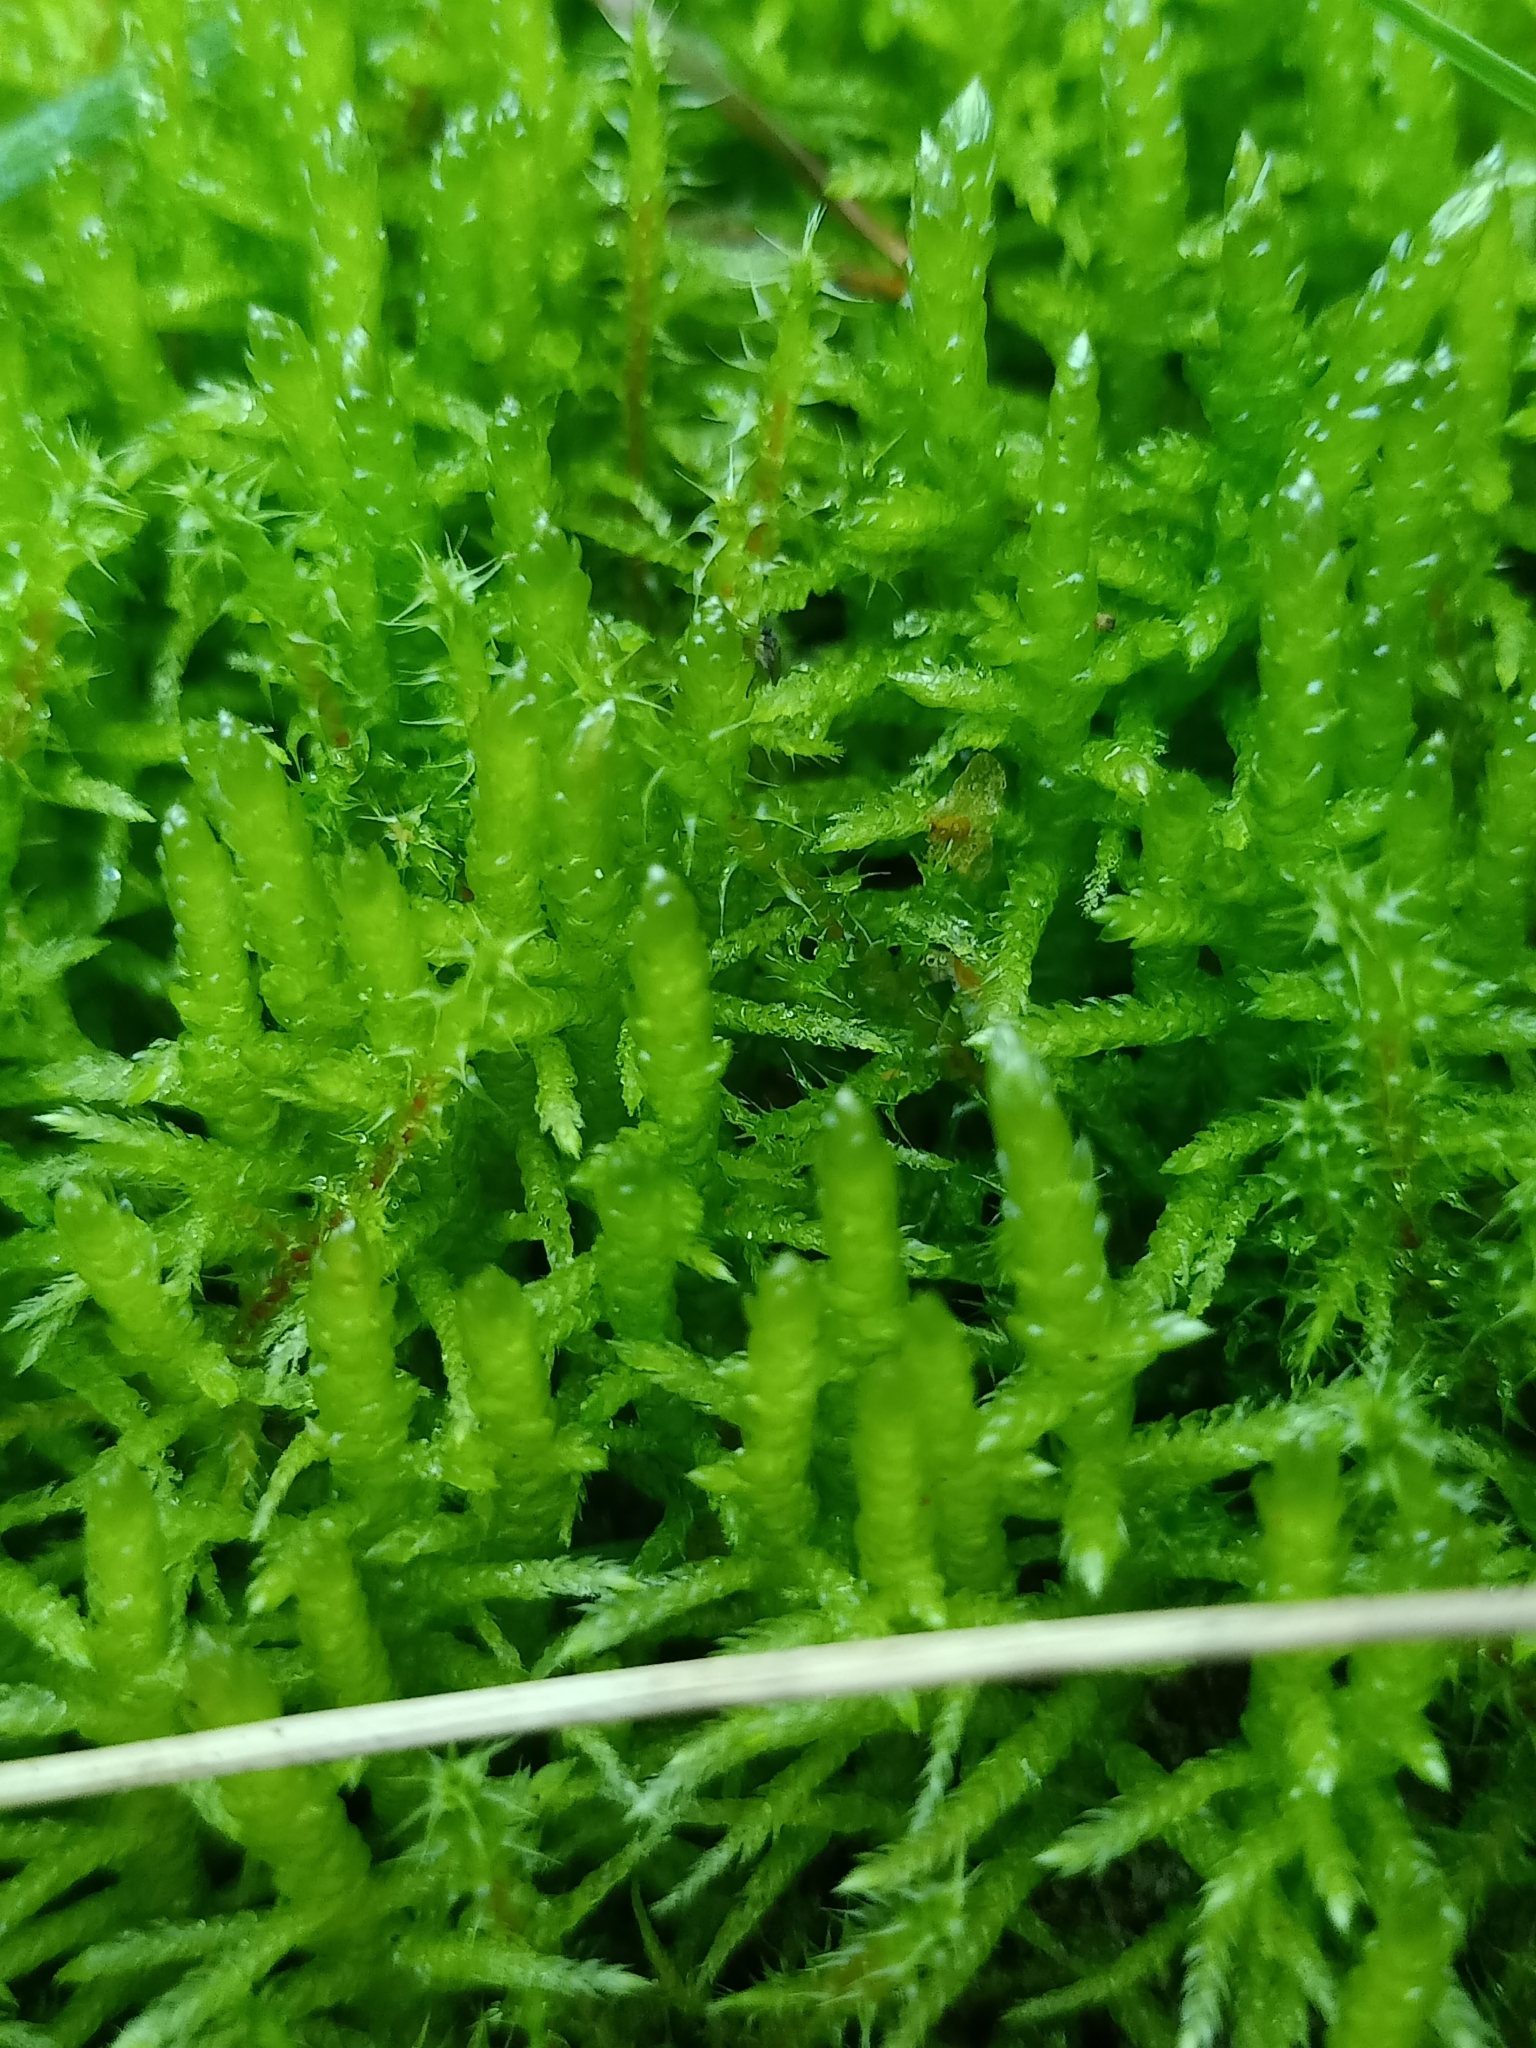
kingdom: Plantae
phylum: Bryophyta
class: Bryopsida
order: Hypnales
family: Brachytheciaceae
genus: Pseudoscleropodium
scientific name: Pseudoscleropodium purum
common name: Neat feather-moss
